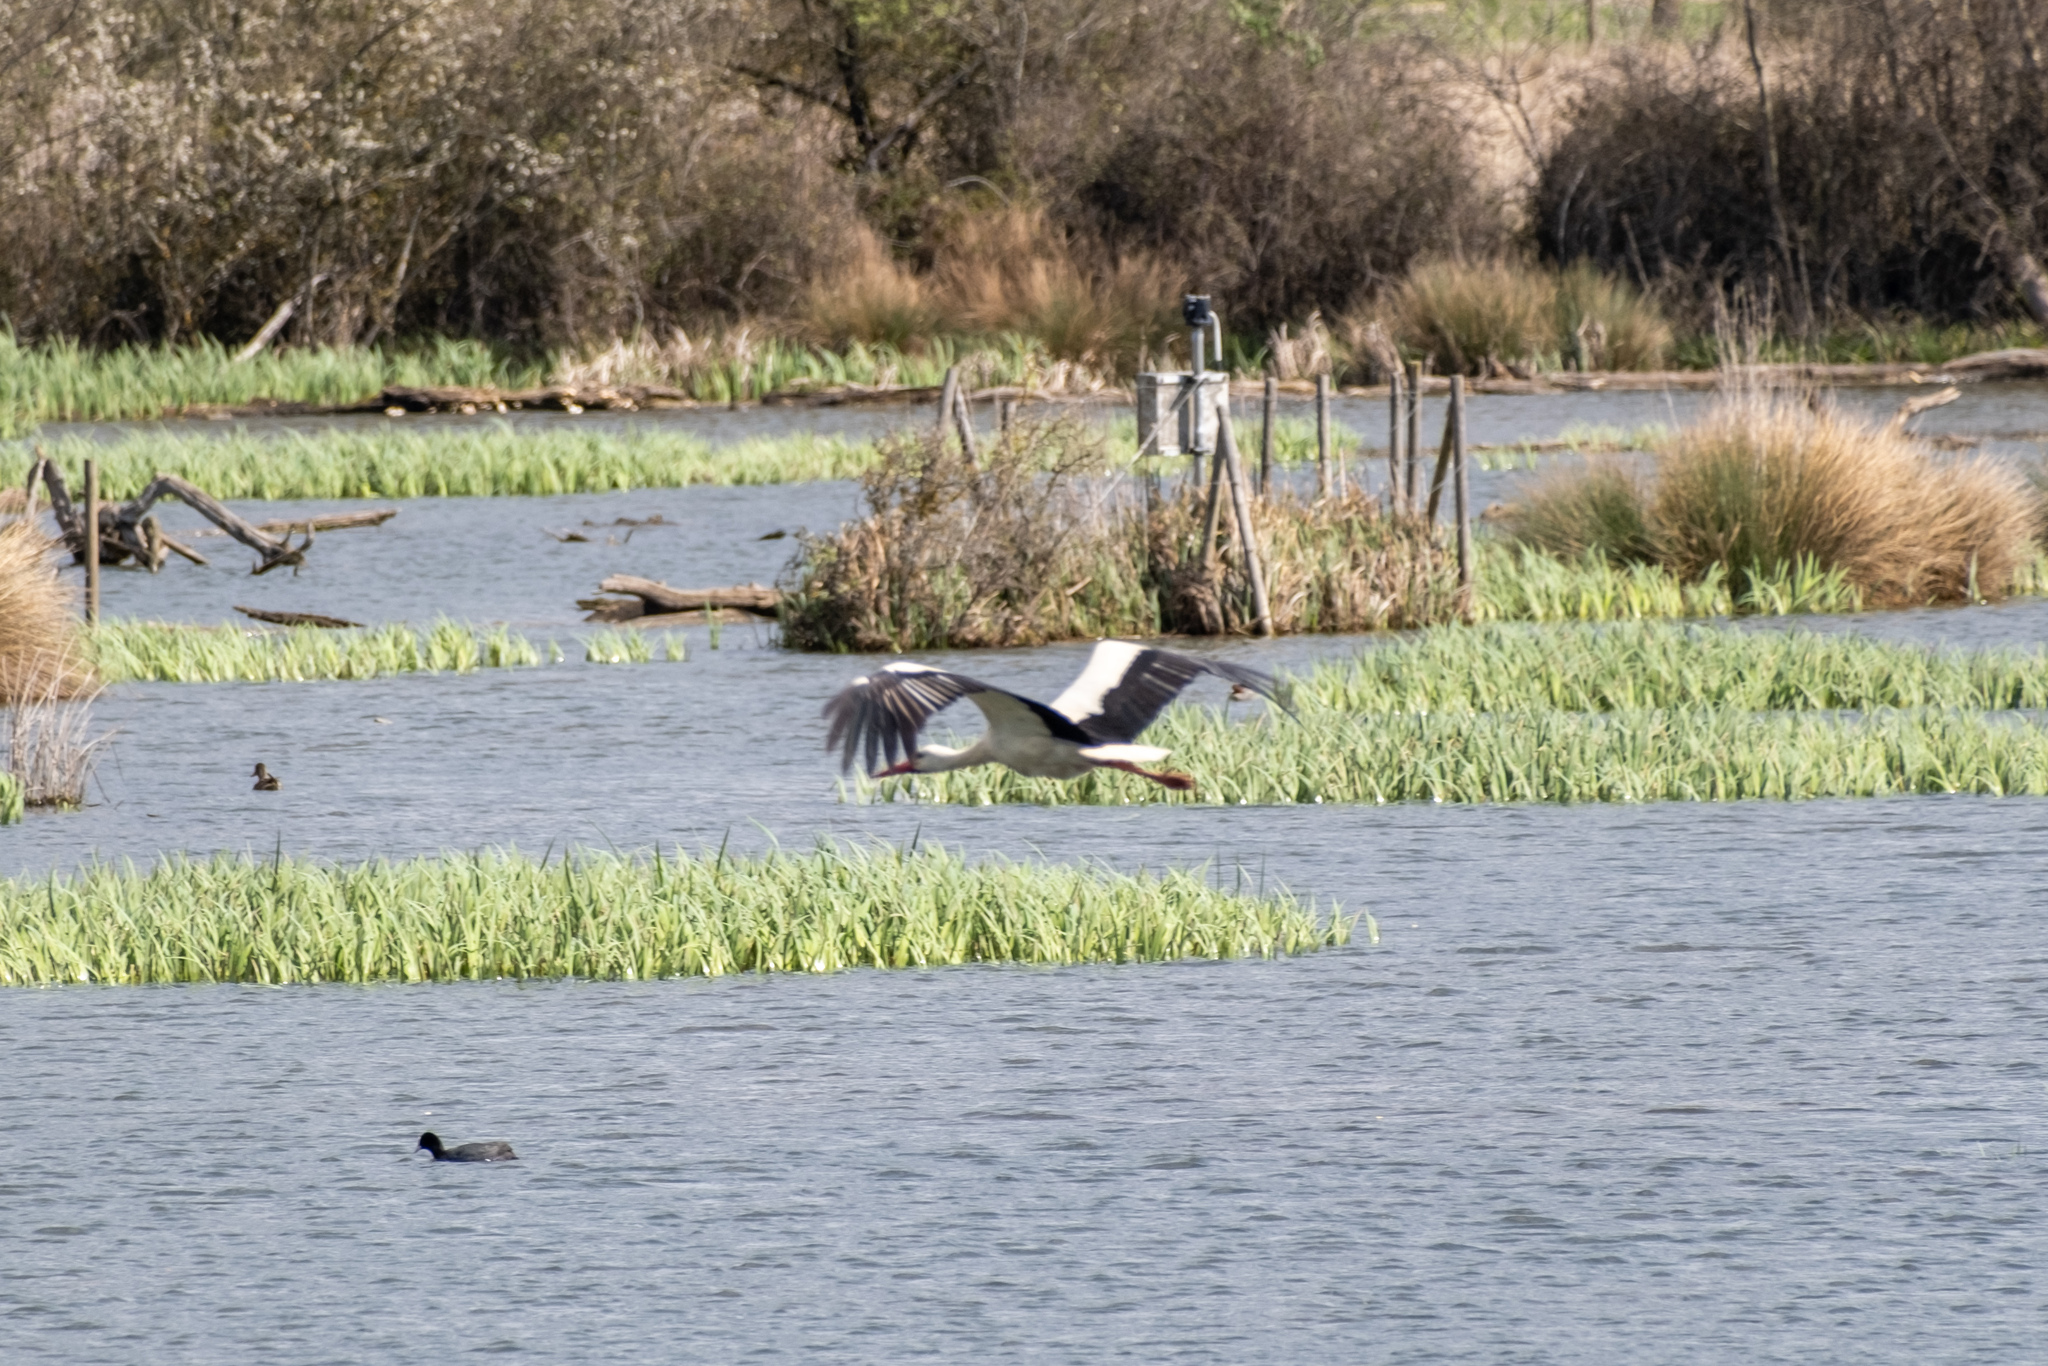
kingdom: Animalia
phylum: Chordata
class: Aves
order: Ciconiiformes
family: Ciconiidae
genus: Ciconia
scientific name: Ciconia ciconia
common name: White stork
